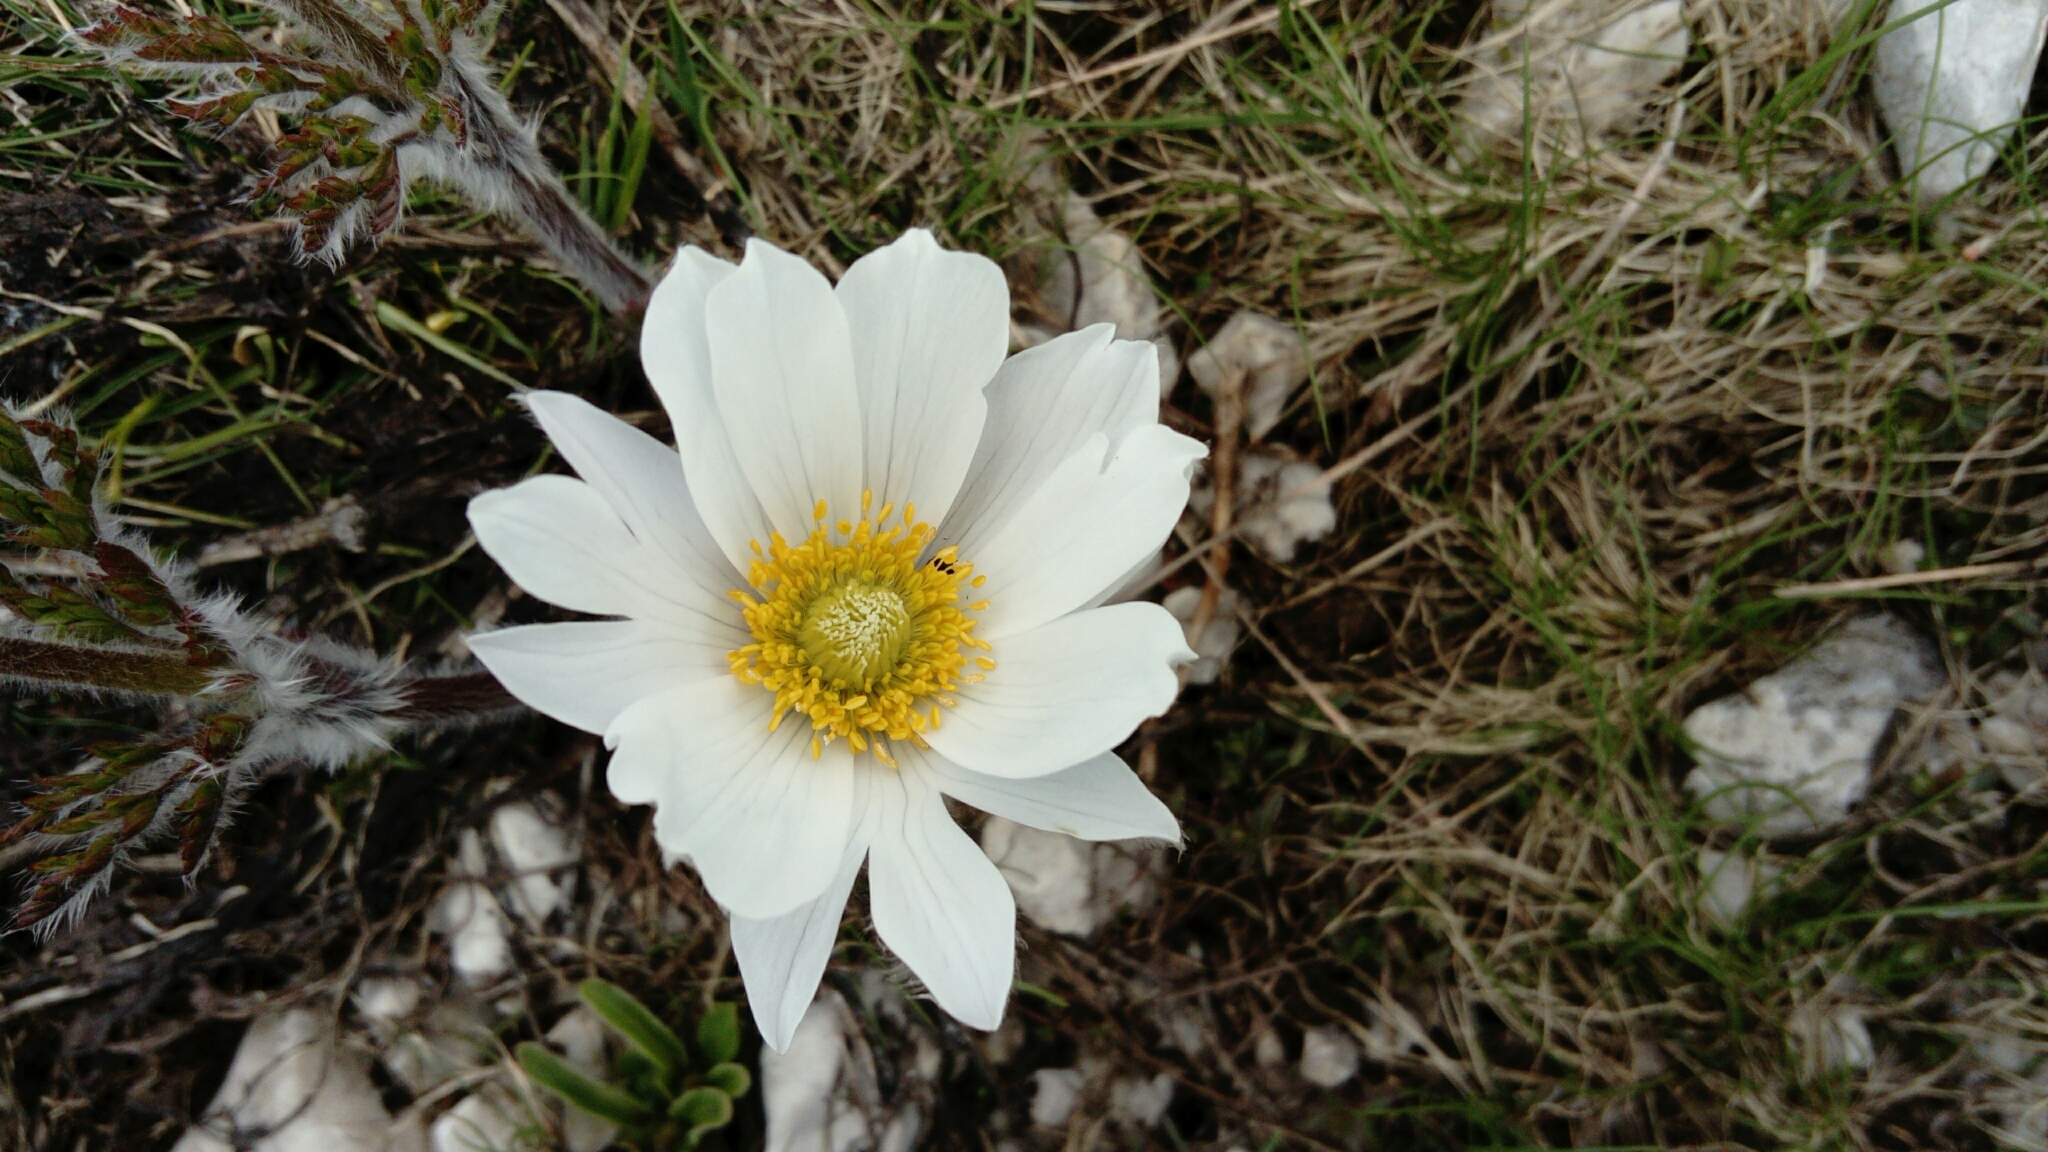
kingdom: Plantae
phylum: Tracheophyta
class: Magnoliopsida
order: Ranunculales
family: Ranunculaceae
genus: Pulsatilla
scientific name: Pulsatilla alpina
